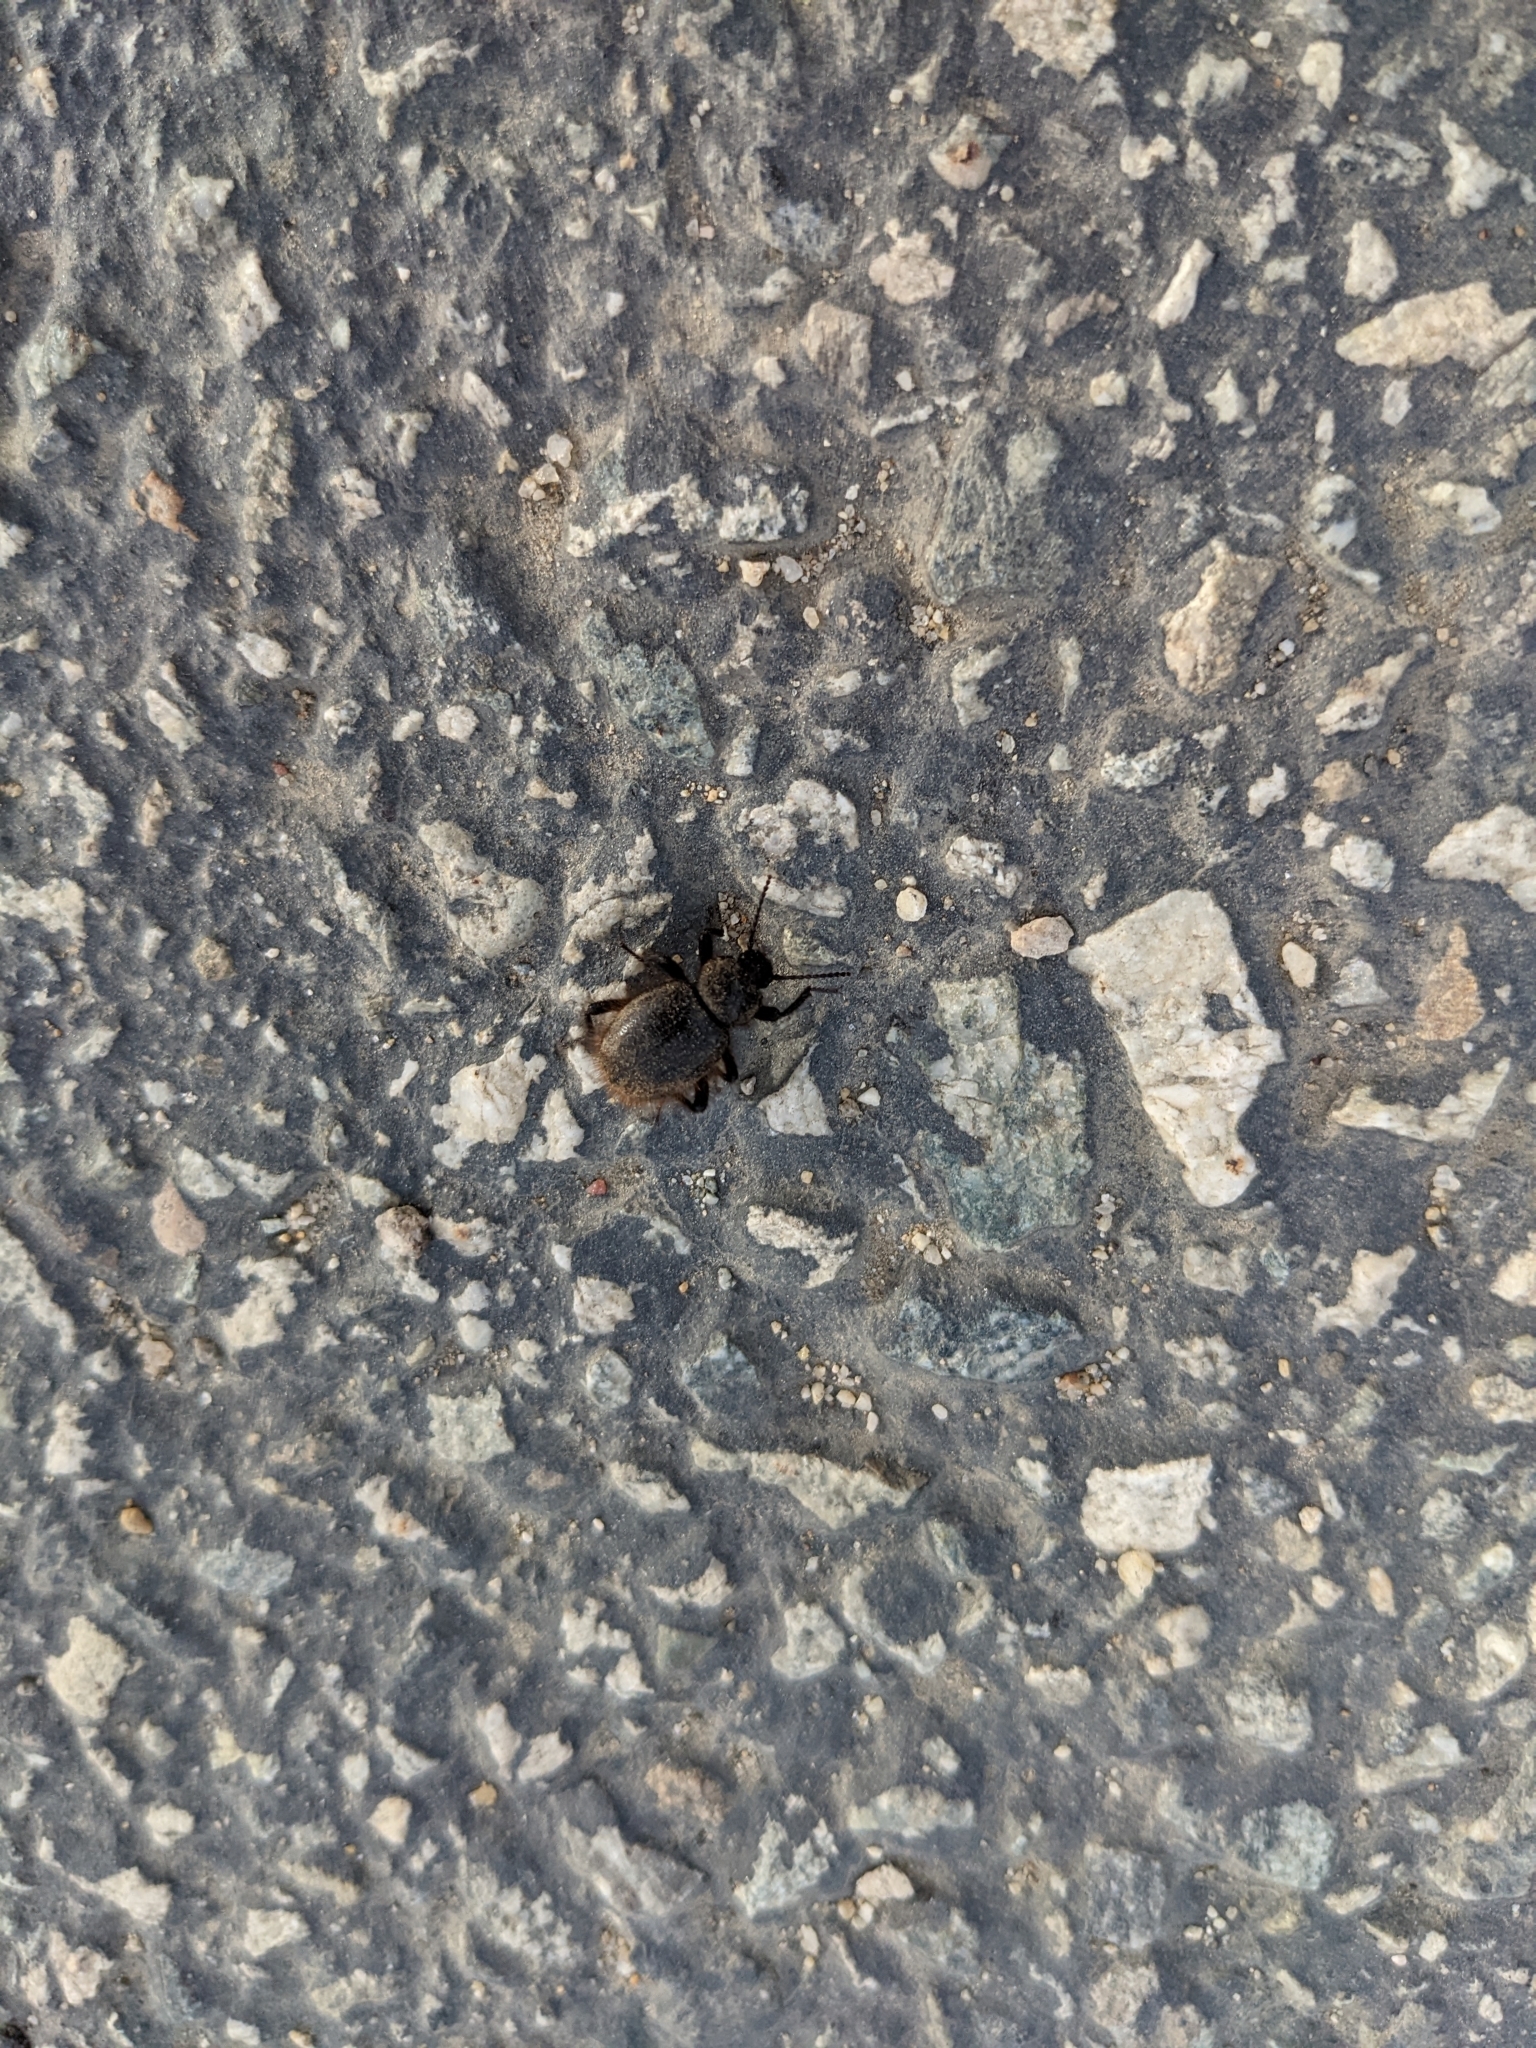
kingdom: Animalia
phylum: Arthropoda
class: Insecta
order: Coleoptera
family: Tenebrionidae
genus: Eleodes
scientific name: Eleodes osculans
